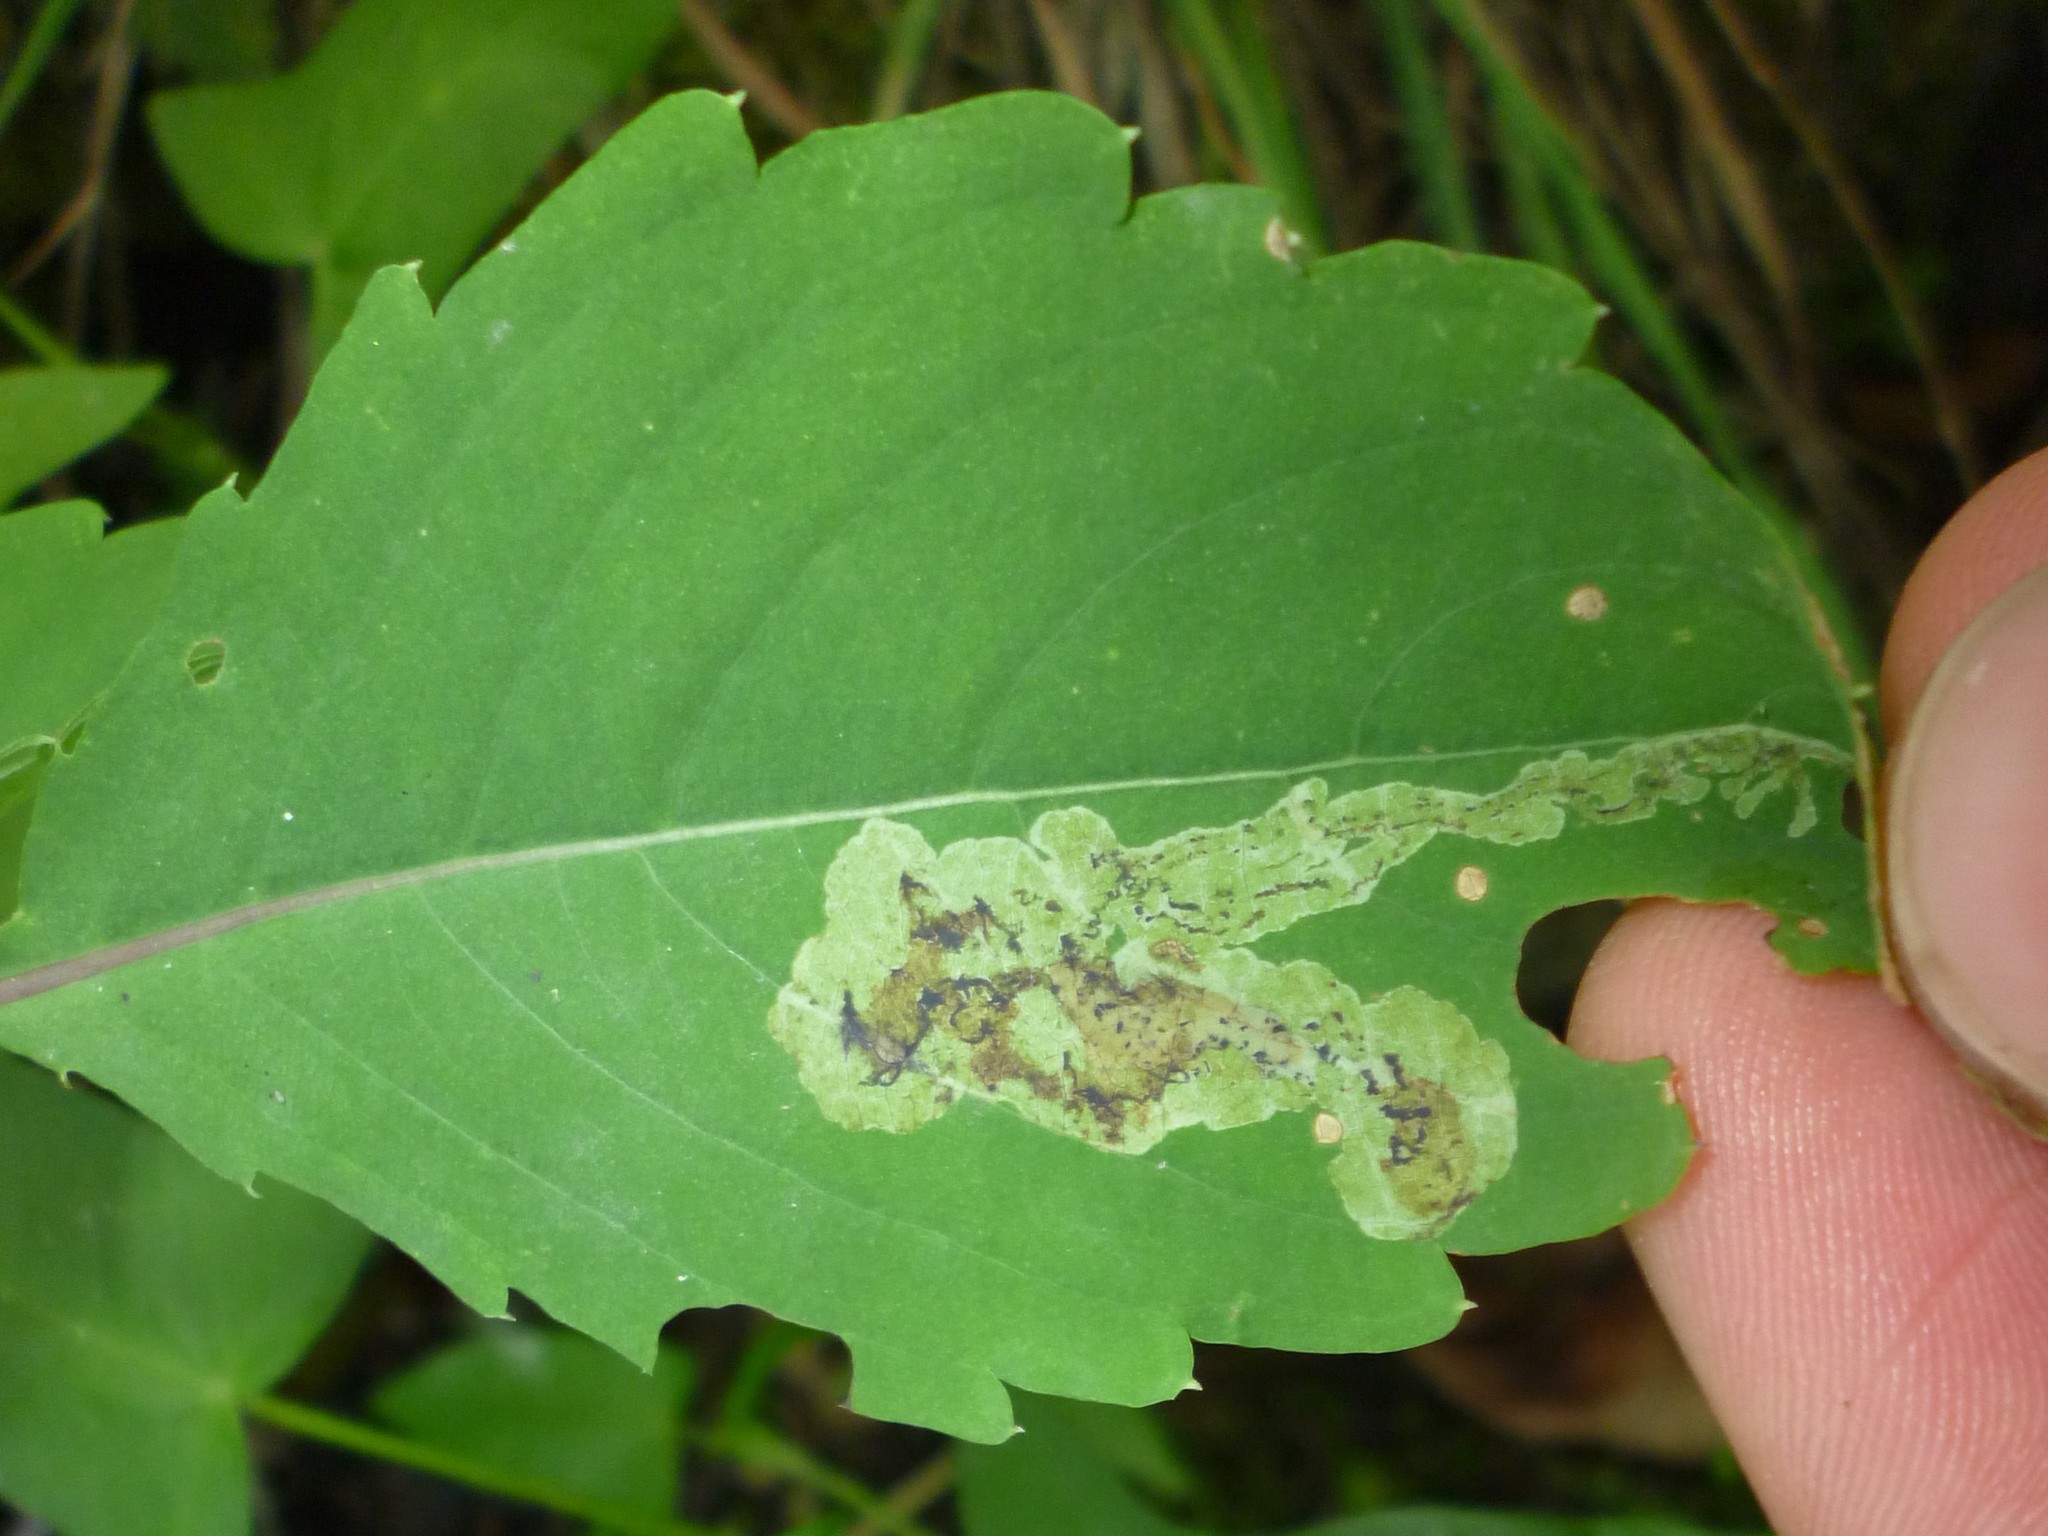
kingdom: Animalia
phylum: Arthropoda
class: Insecta
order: Diptera
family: Agromyzidae
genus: Phytoliriomyza
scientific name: Phytoliriomyza melampyga
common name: Jewelweed leaf-miner fly
